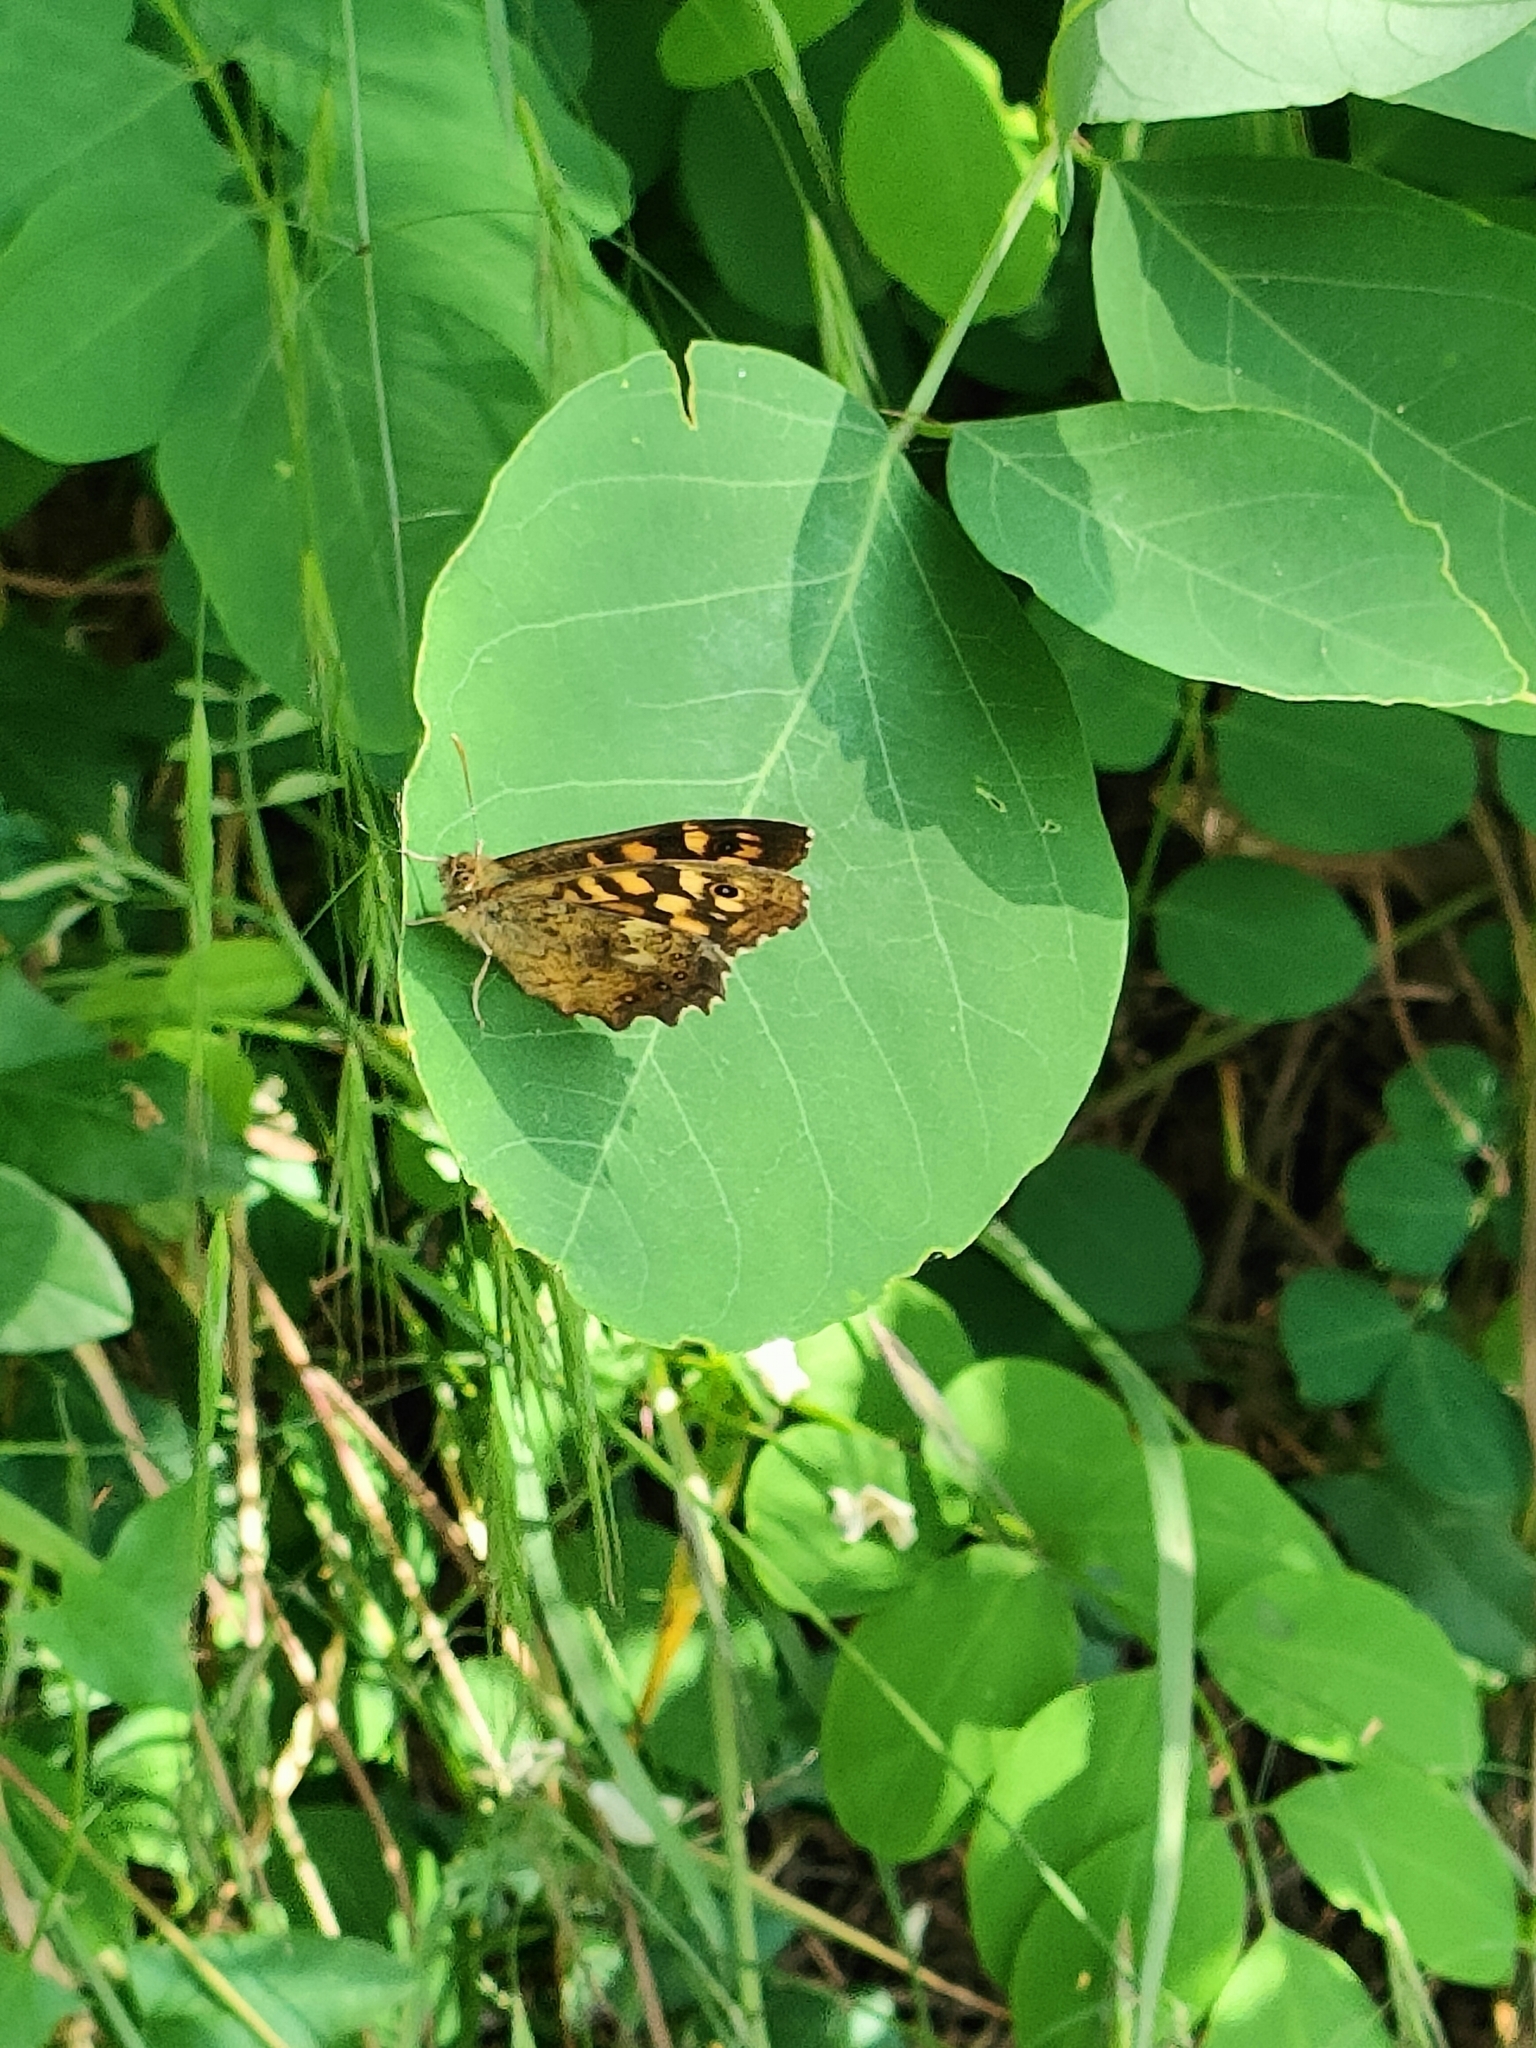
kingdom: Animalia
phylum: Arthropoda
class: Insecta
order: Lepidoptera
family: Nymphalidae
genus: Pararge
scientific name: Pararge aegeria
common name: Speckled wood
